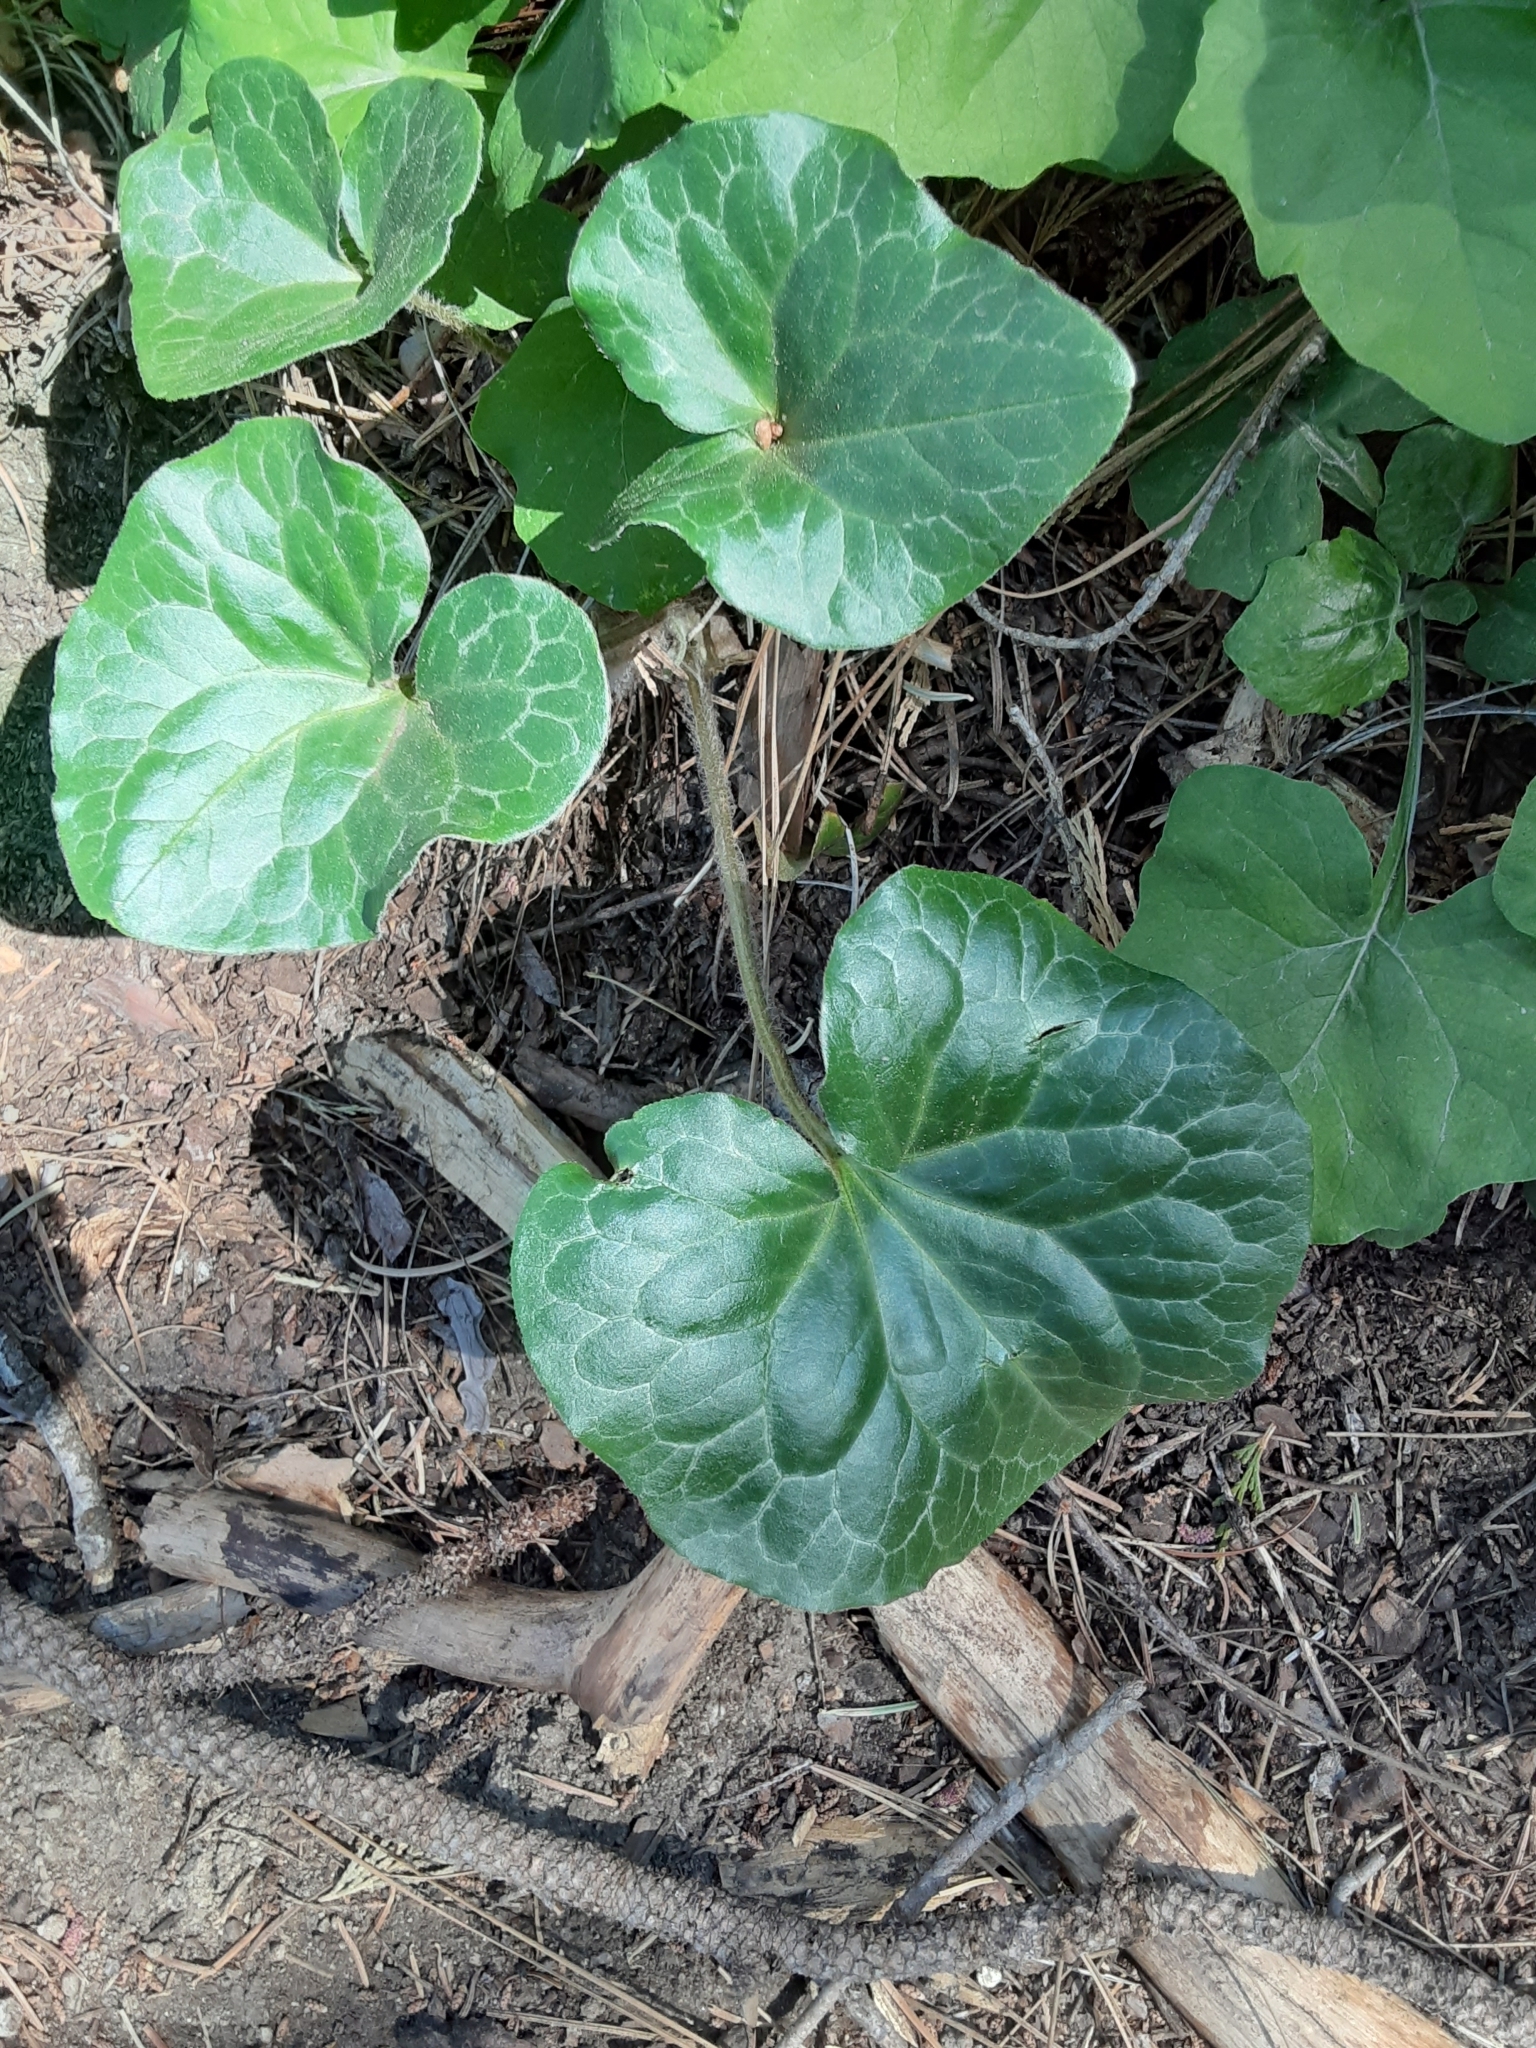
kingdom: Plantae
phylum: Tracheophyta
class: Magnoliopsida
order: Piperales
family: Aristolochiaceae
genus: Asarum
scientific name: Asarum hartwegii
